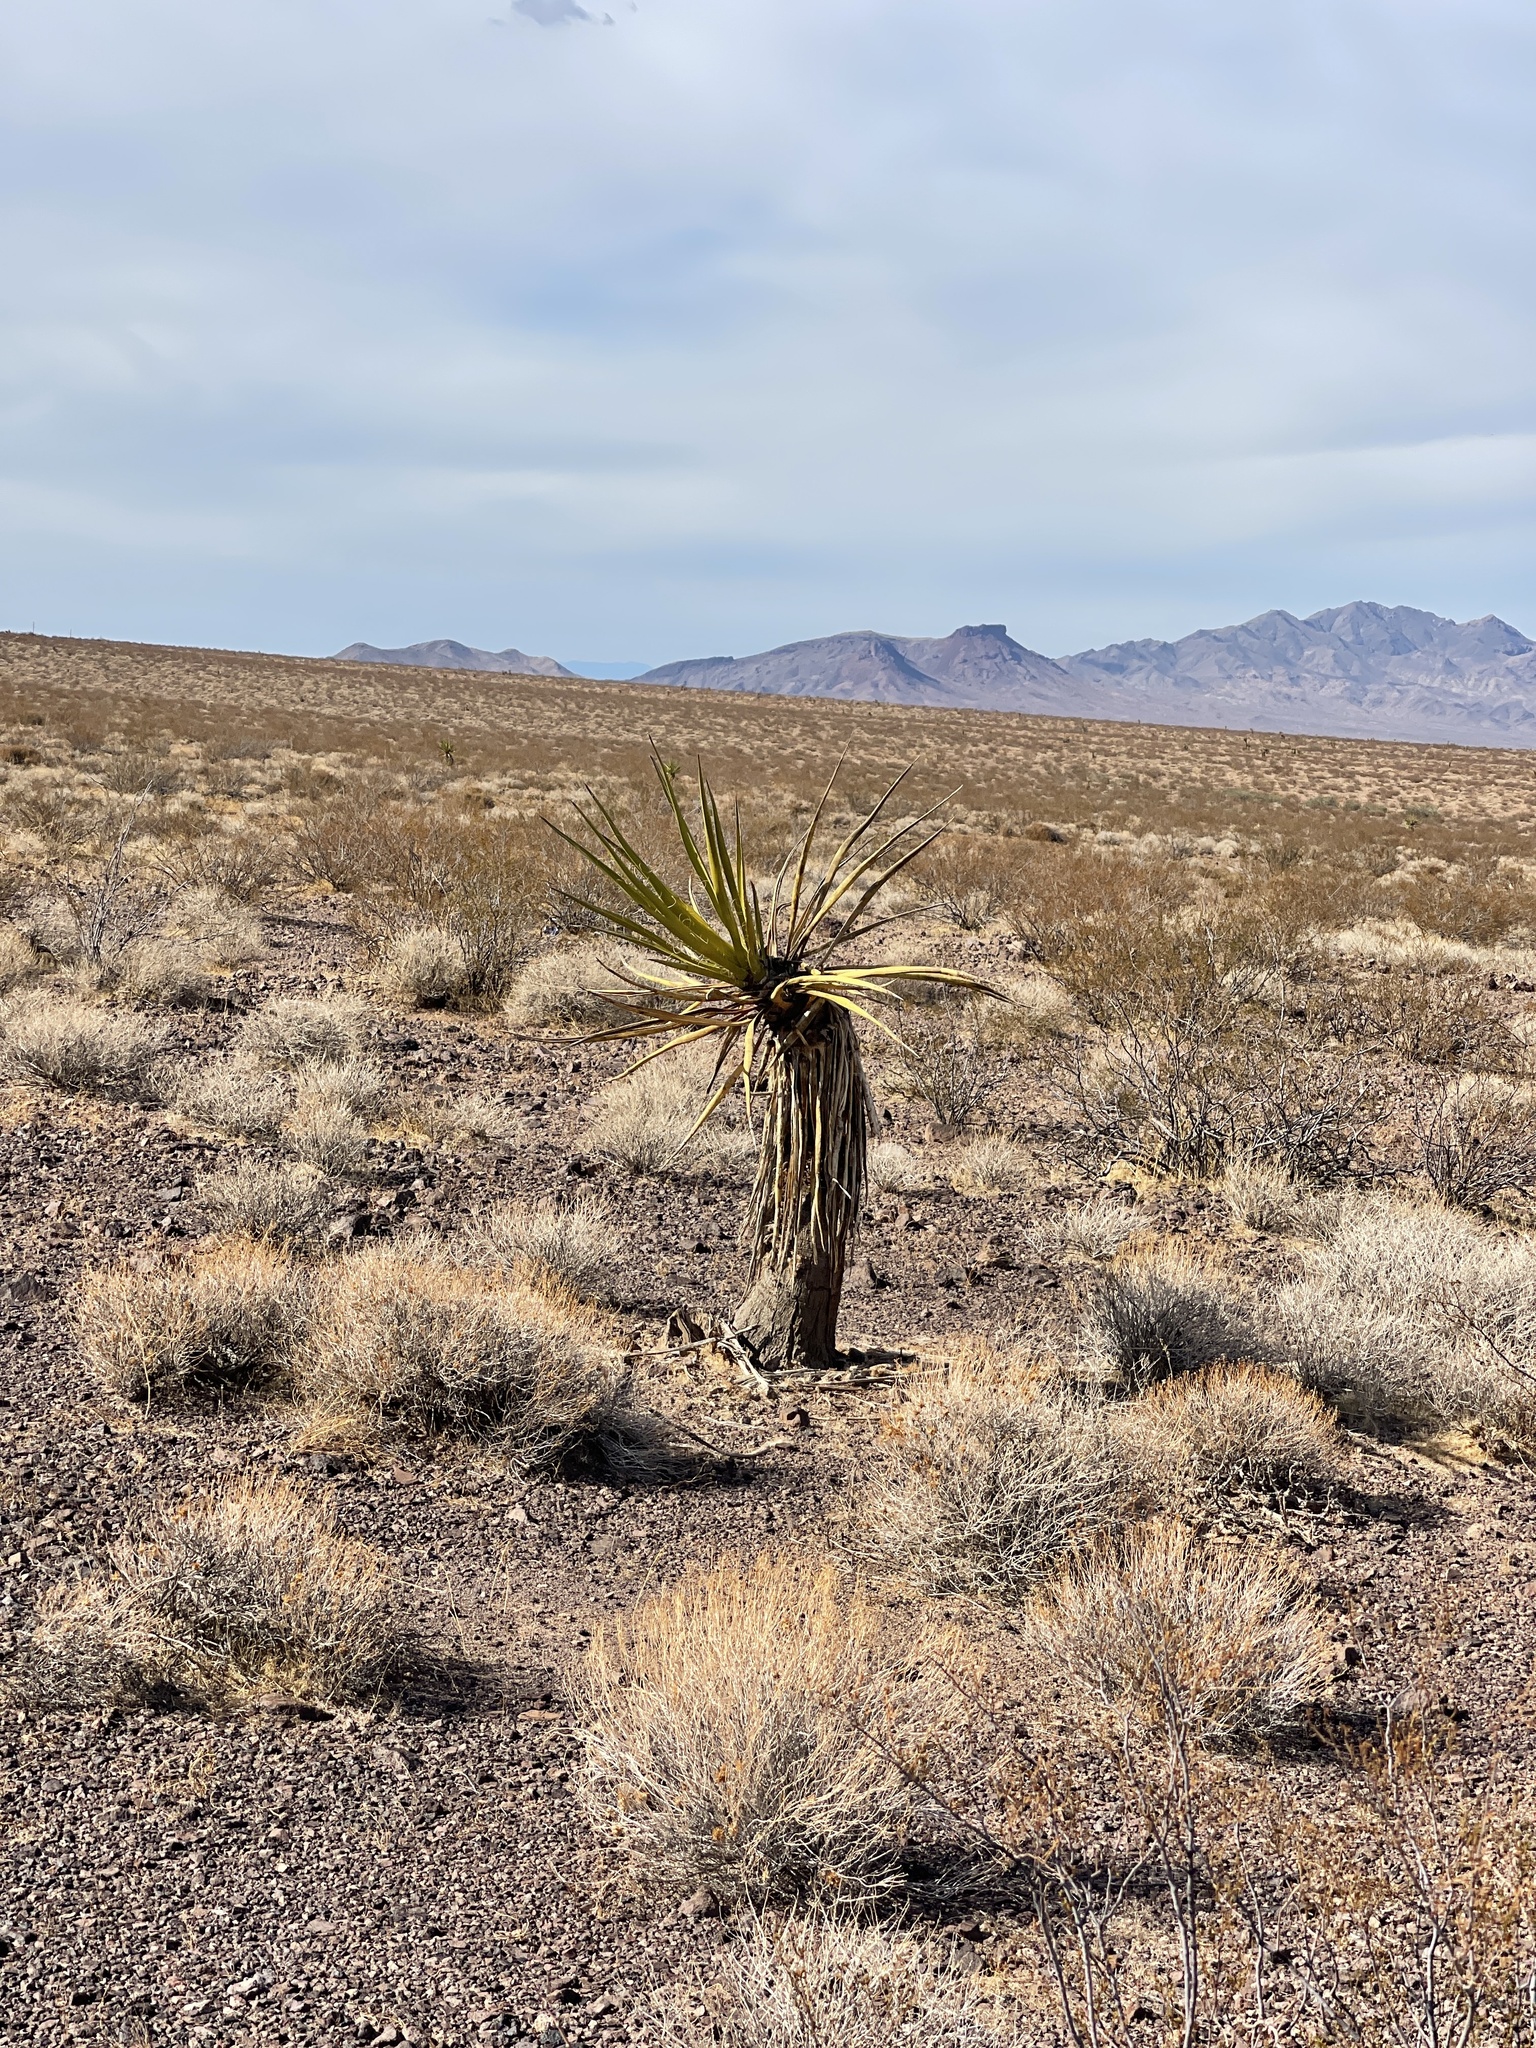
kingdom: Plantae
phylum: Tracheophyta
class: Liliopsida
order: Asparagales
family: Asparagaceae
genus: Yucca
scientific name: Yucca schidigera
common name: Mojave yucca
